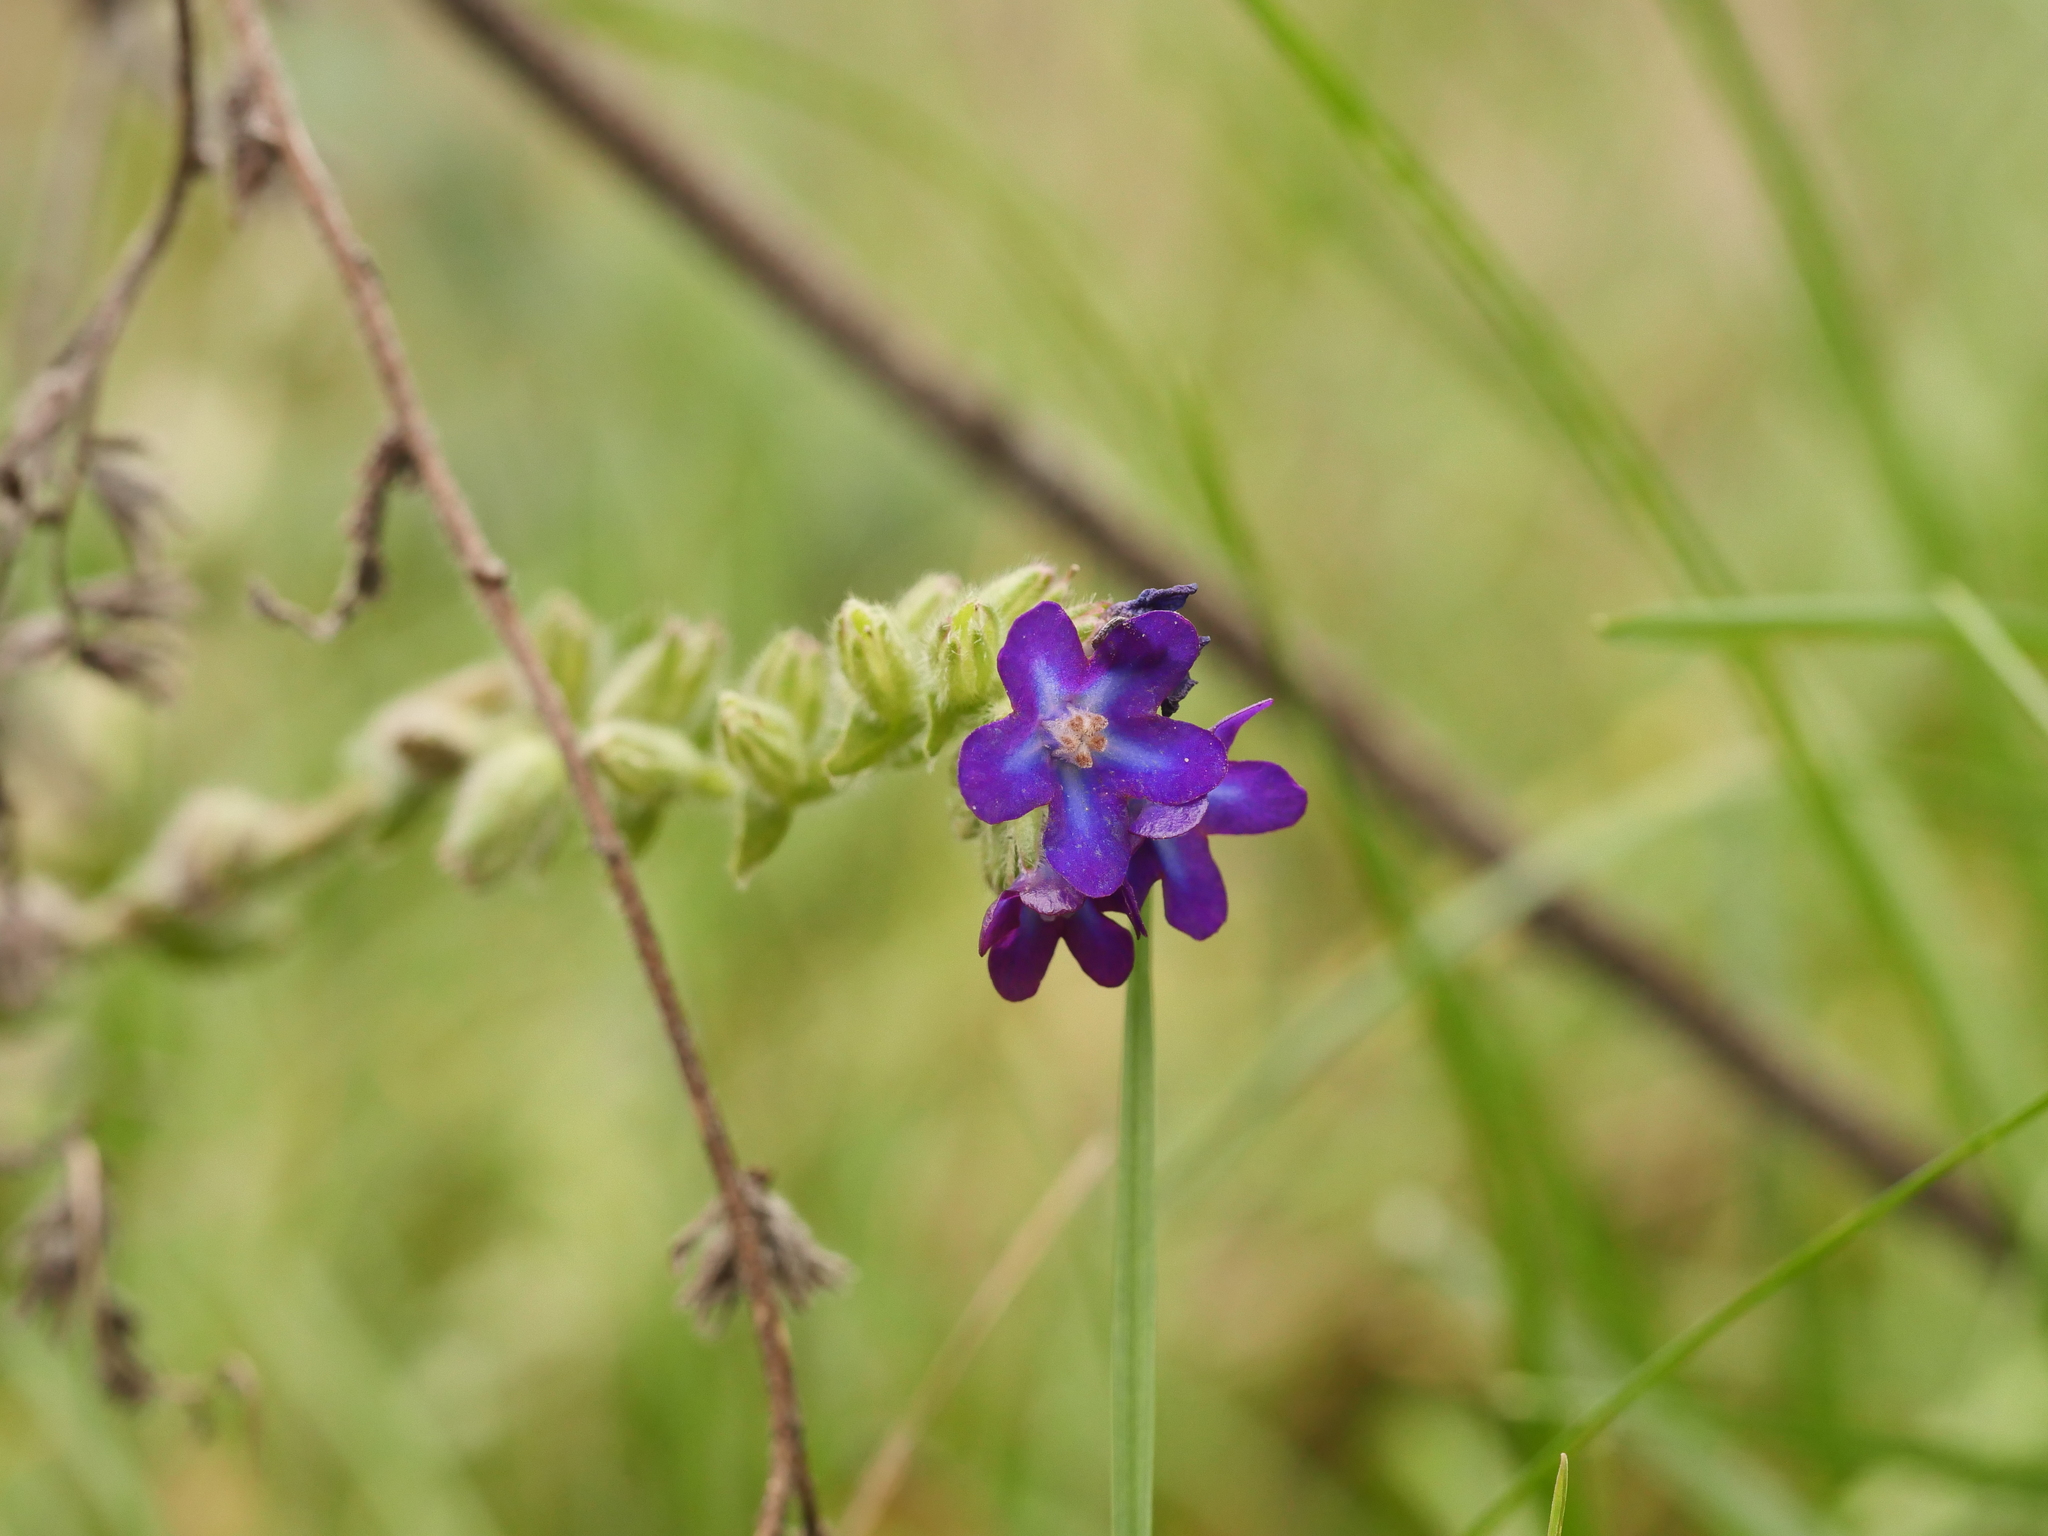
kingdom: Plantae
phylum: Tracheophyta
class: Magnoliopsida
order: Boraginales
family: Boraginaceae
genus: Anchusa
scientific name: Anchusa officinalis
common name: Alkanet
